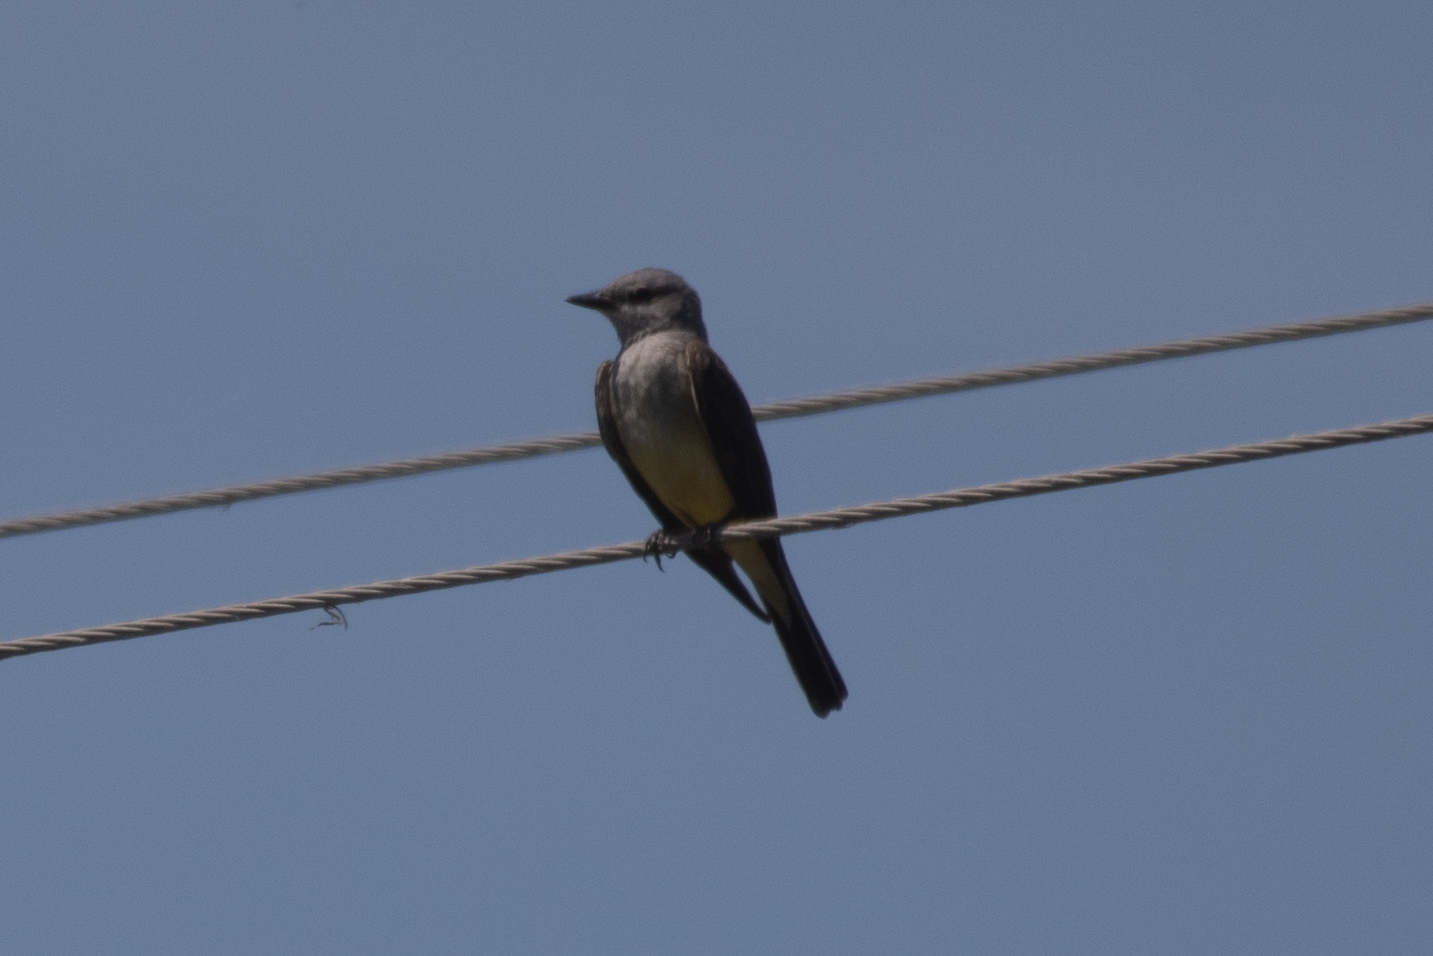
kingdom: Animalia
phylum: Chordata
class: Aves
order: Passeriformes
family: Tyrannidae
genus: Tyrannus
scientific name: Tyrannus verticalis
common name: Western kingbird
